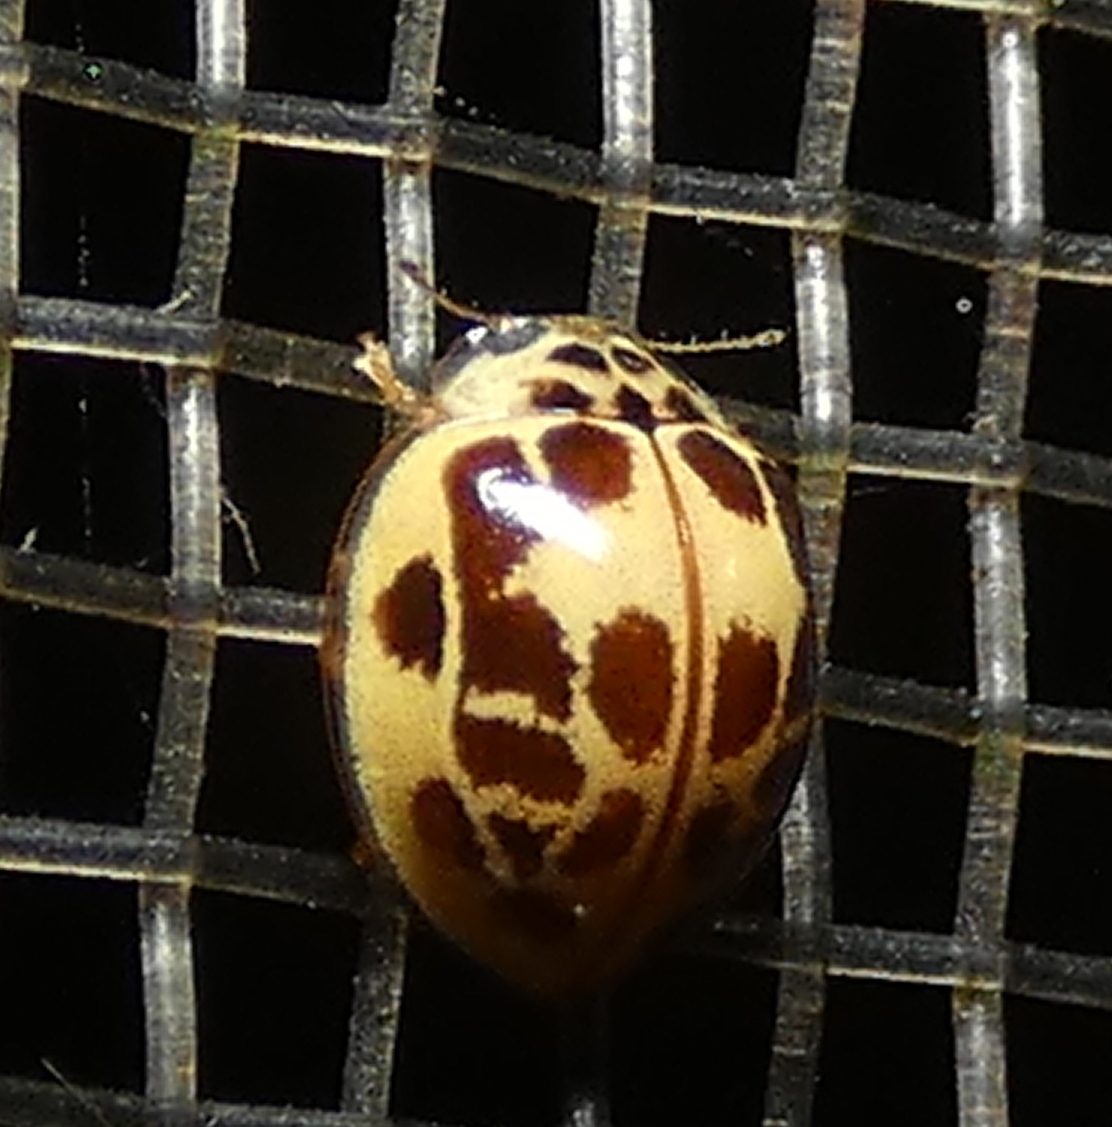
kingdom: Animalia
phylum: Arthropoda
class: Insecta
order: Coleoptera
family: Coccinellidae
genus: Psyllobora
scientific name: Psyllobora confluens
